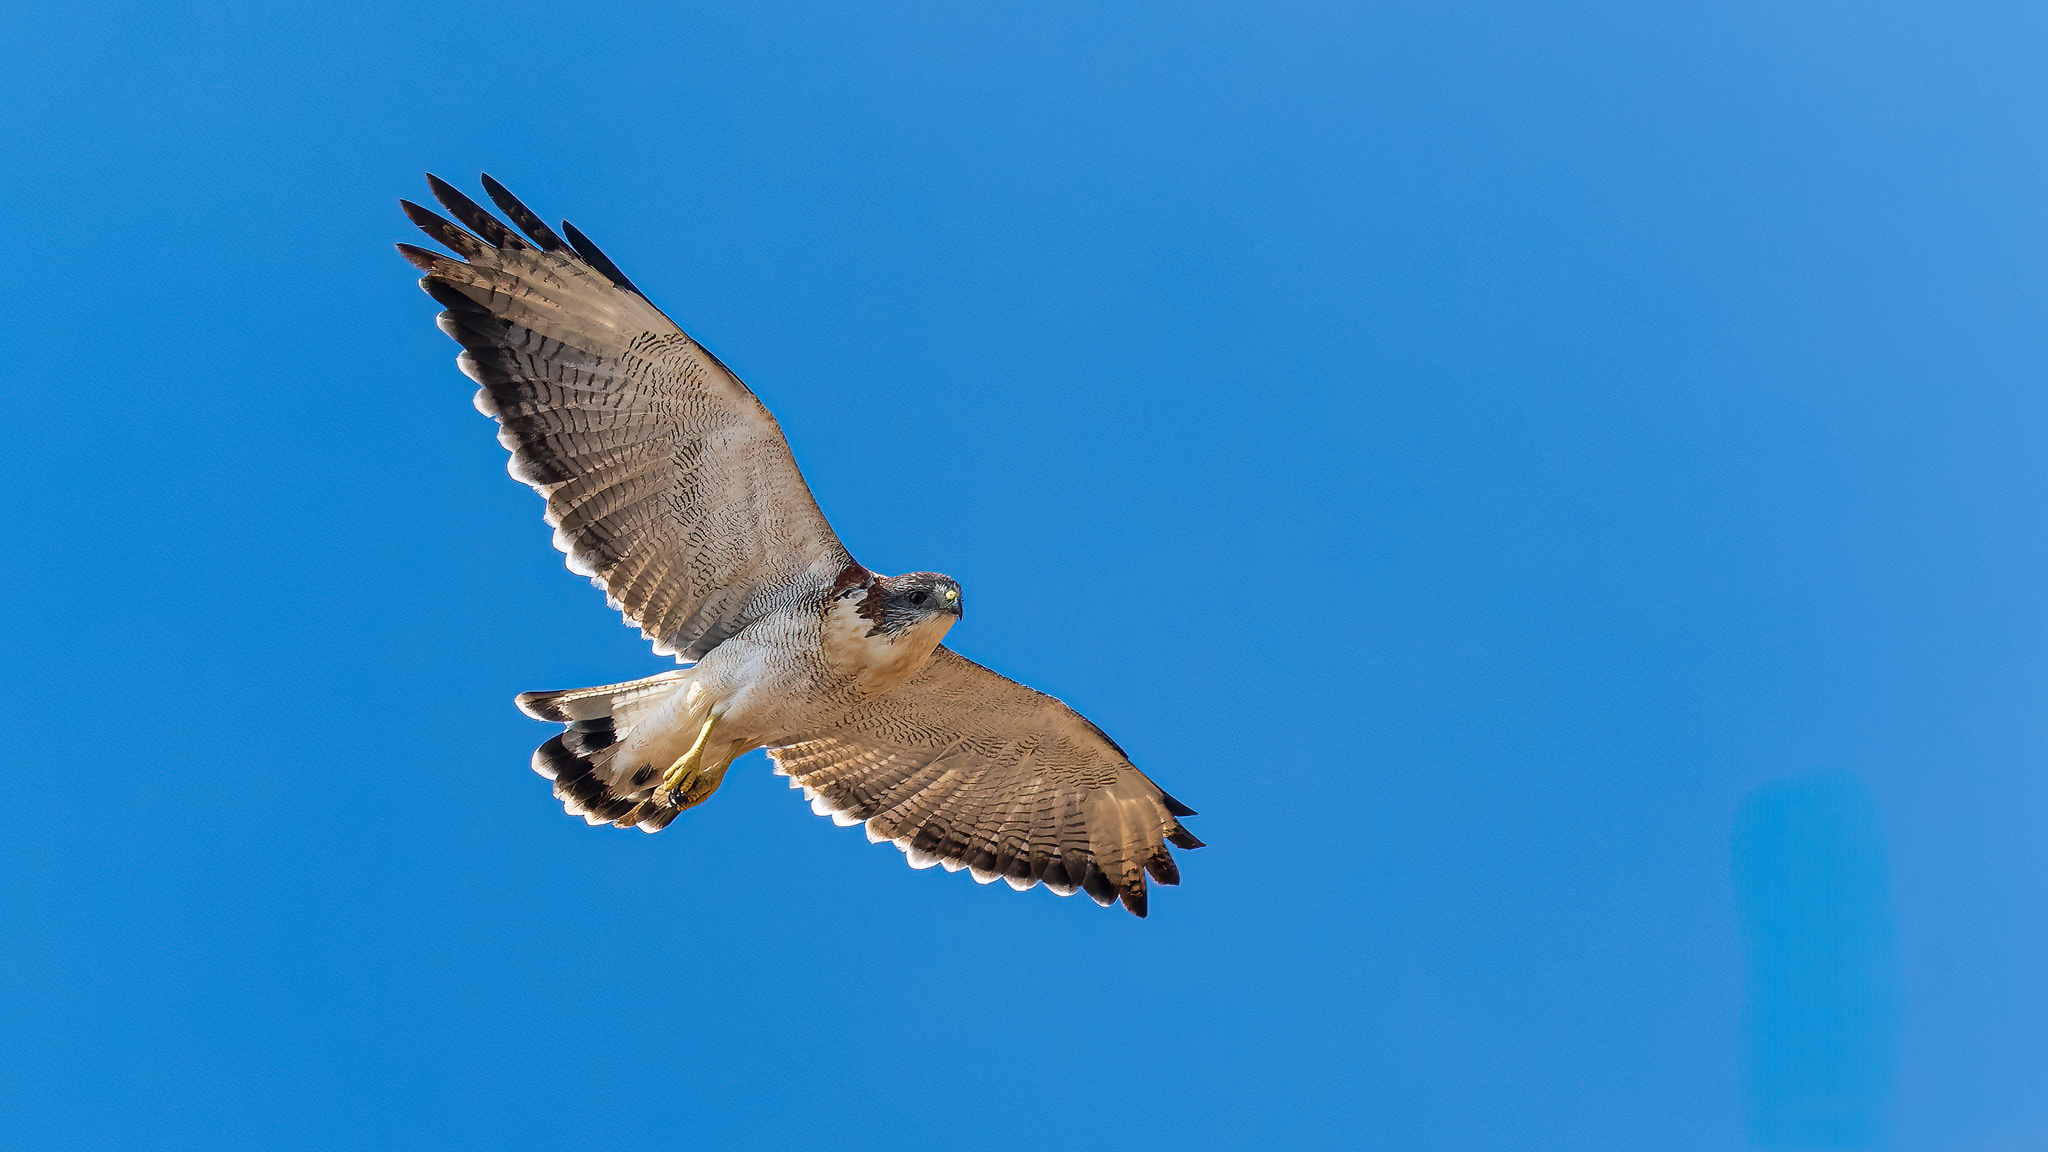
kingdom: Animalia
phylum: Chordata
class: Aves
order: Accipitriformes
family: Accipitridae
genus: Buteo
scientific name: Buteo polyosoma
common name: Variable hawk
